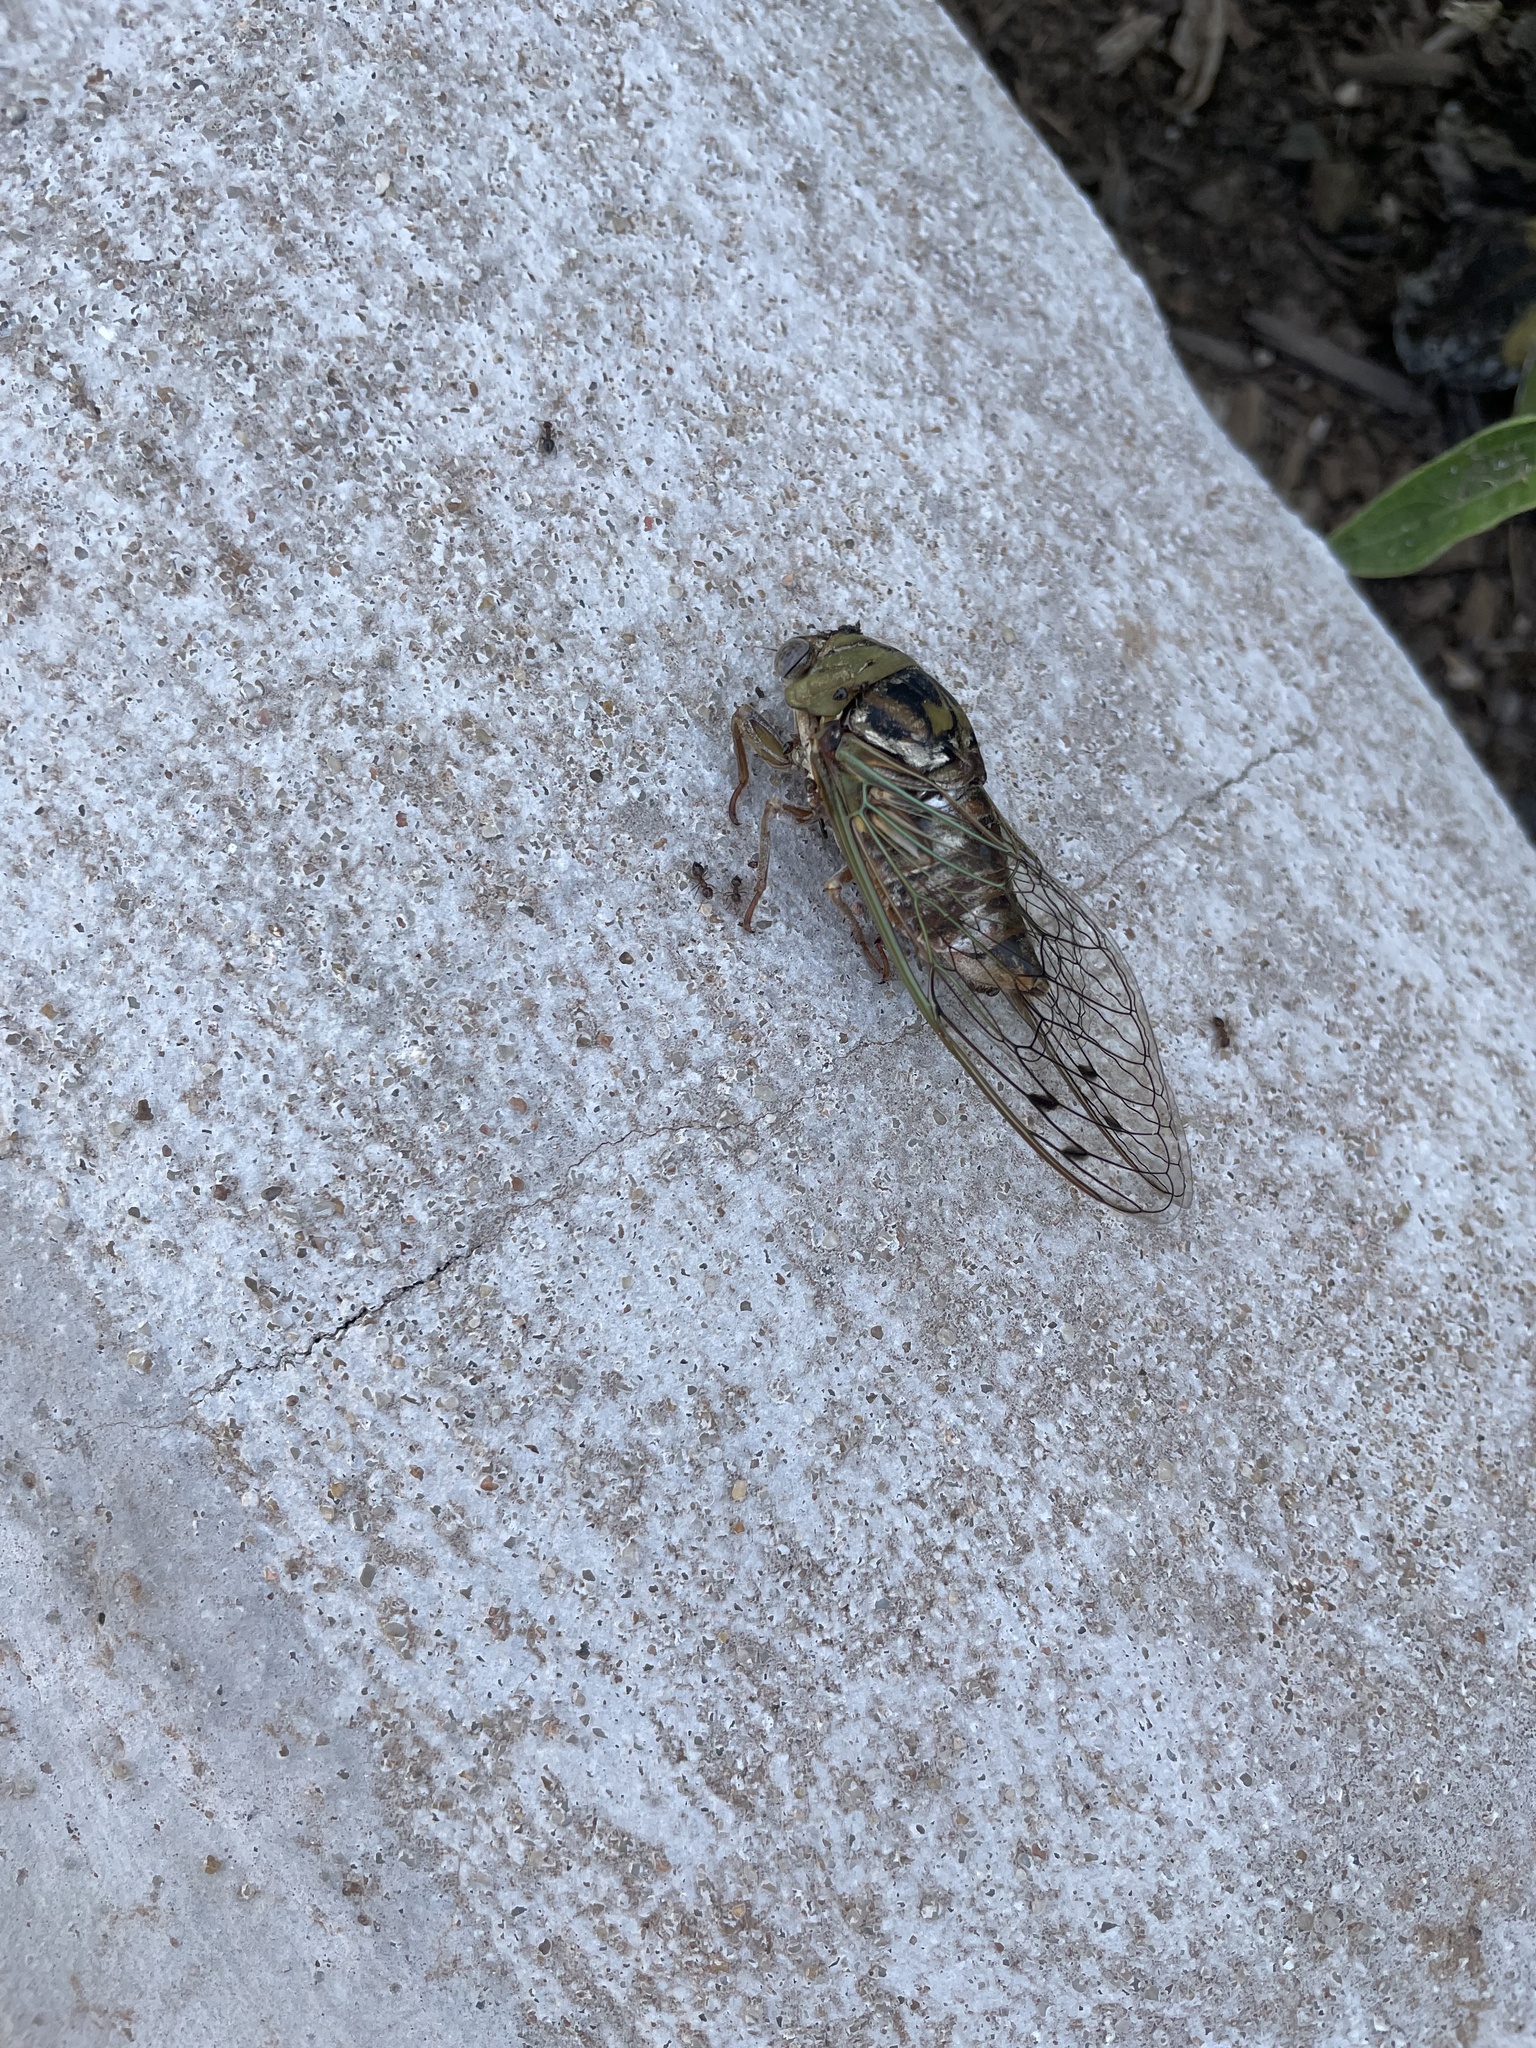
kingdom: Animalia
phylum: Arthropoda
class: Insecta
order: Hemiptera
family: Cicadidae
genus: Megatibicen
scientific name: Megatibicen resh
